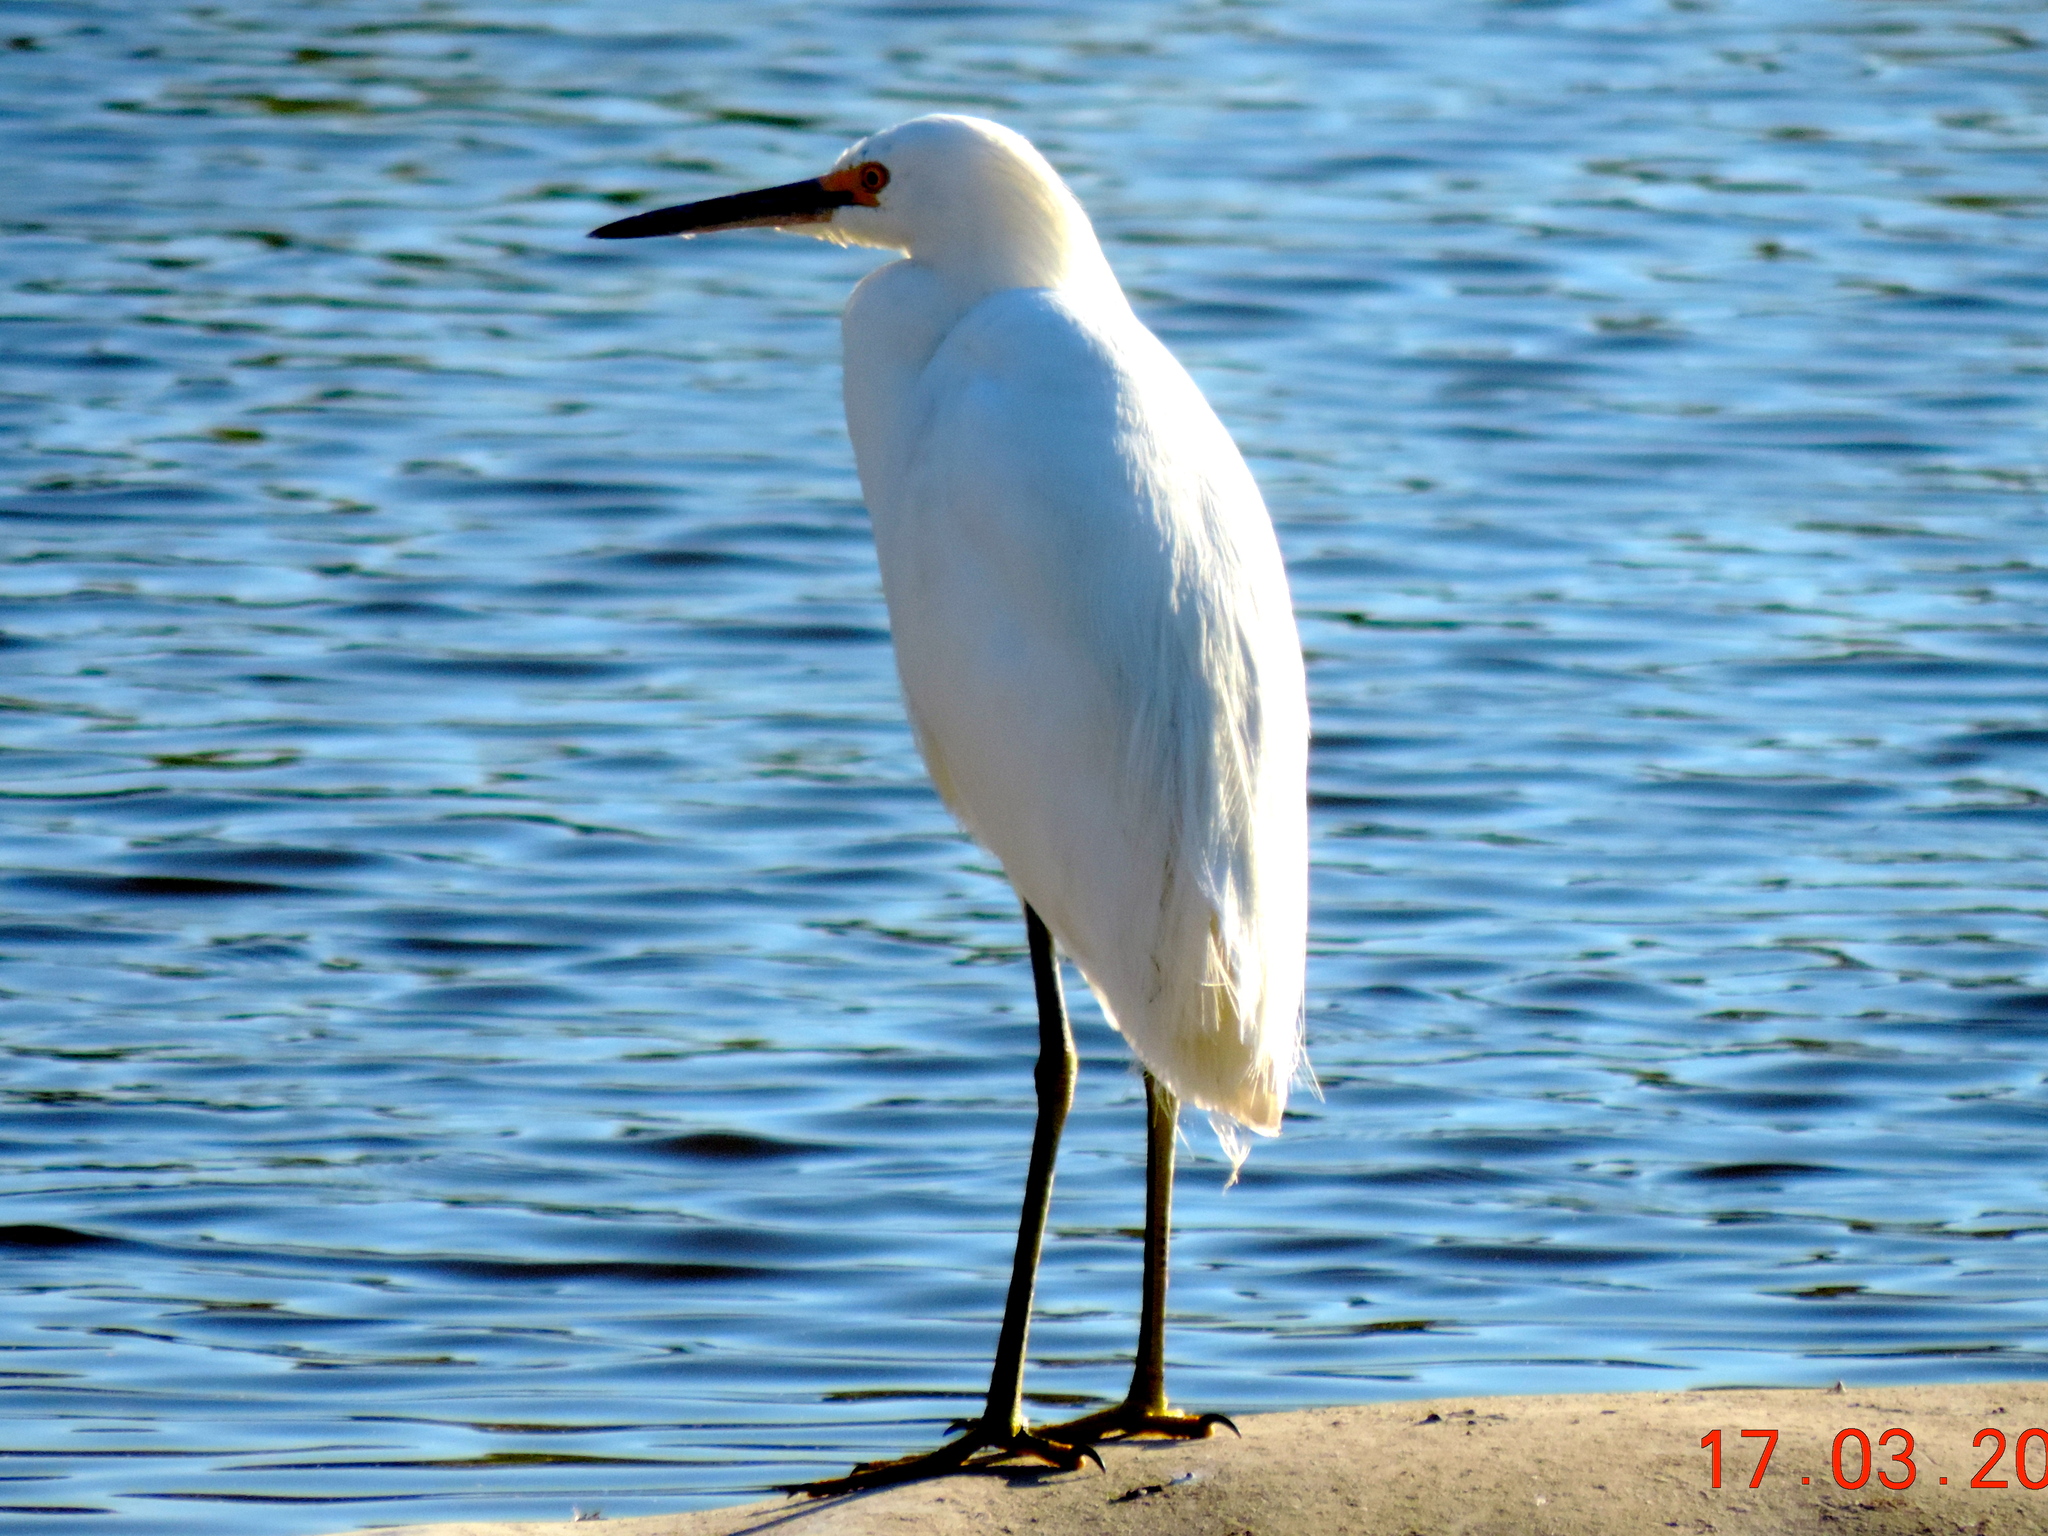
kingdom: Animalia
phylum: Chordata
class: Aves
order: Pelecaniformes
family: Ardeidae
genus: Egretta
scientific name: Egretta thula
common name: Snowy egret
